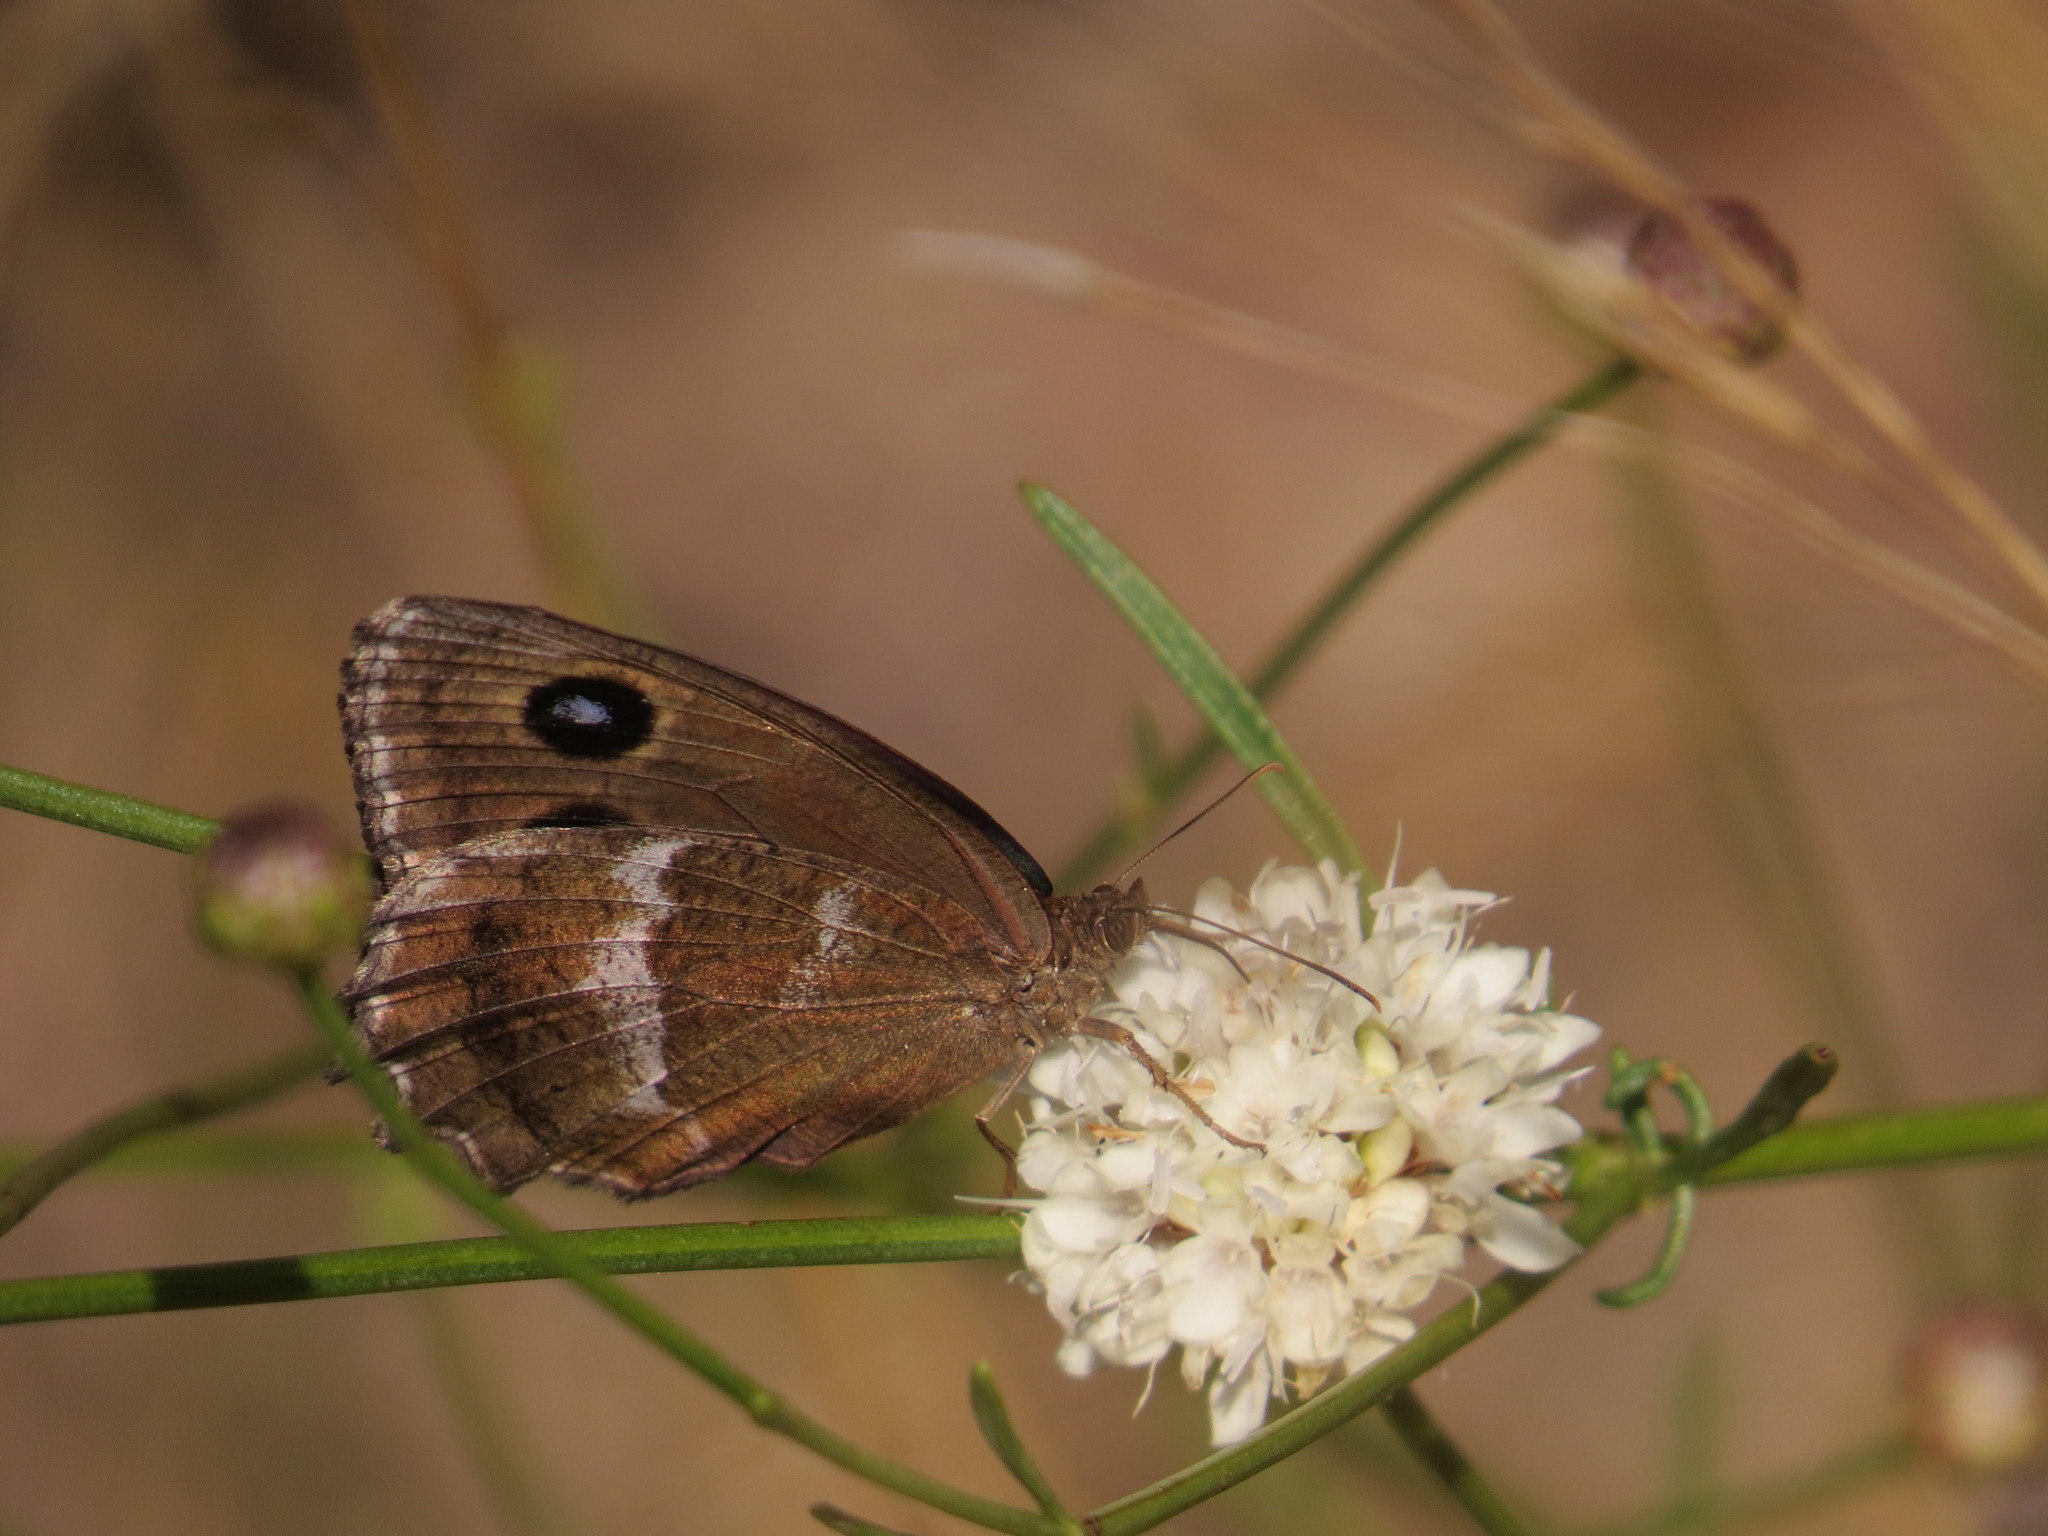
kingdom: Animalia
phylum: Arthropoda
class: Insecta
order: Lepidoptera
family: Nymphalidae
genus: Minois
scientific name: Minois dryas
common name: Dryad
